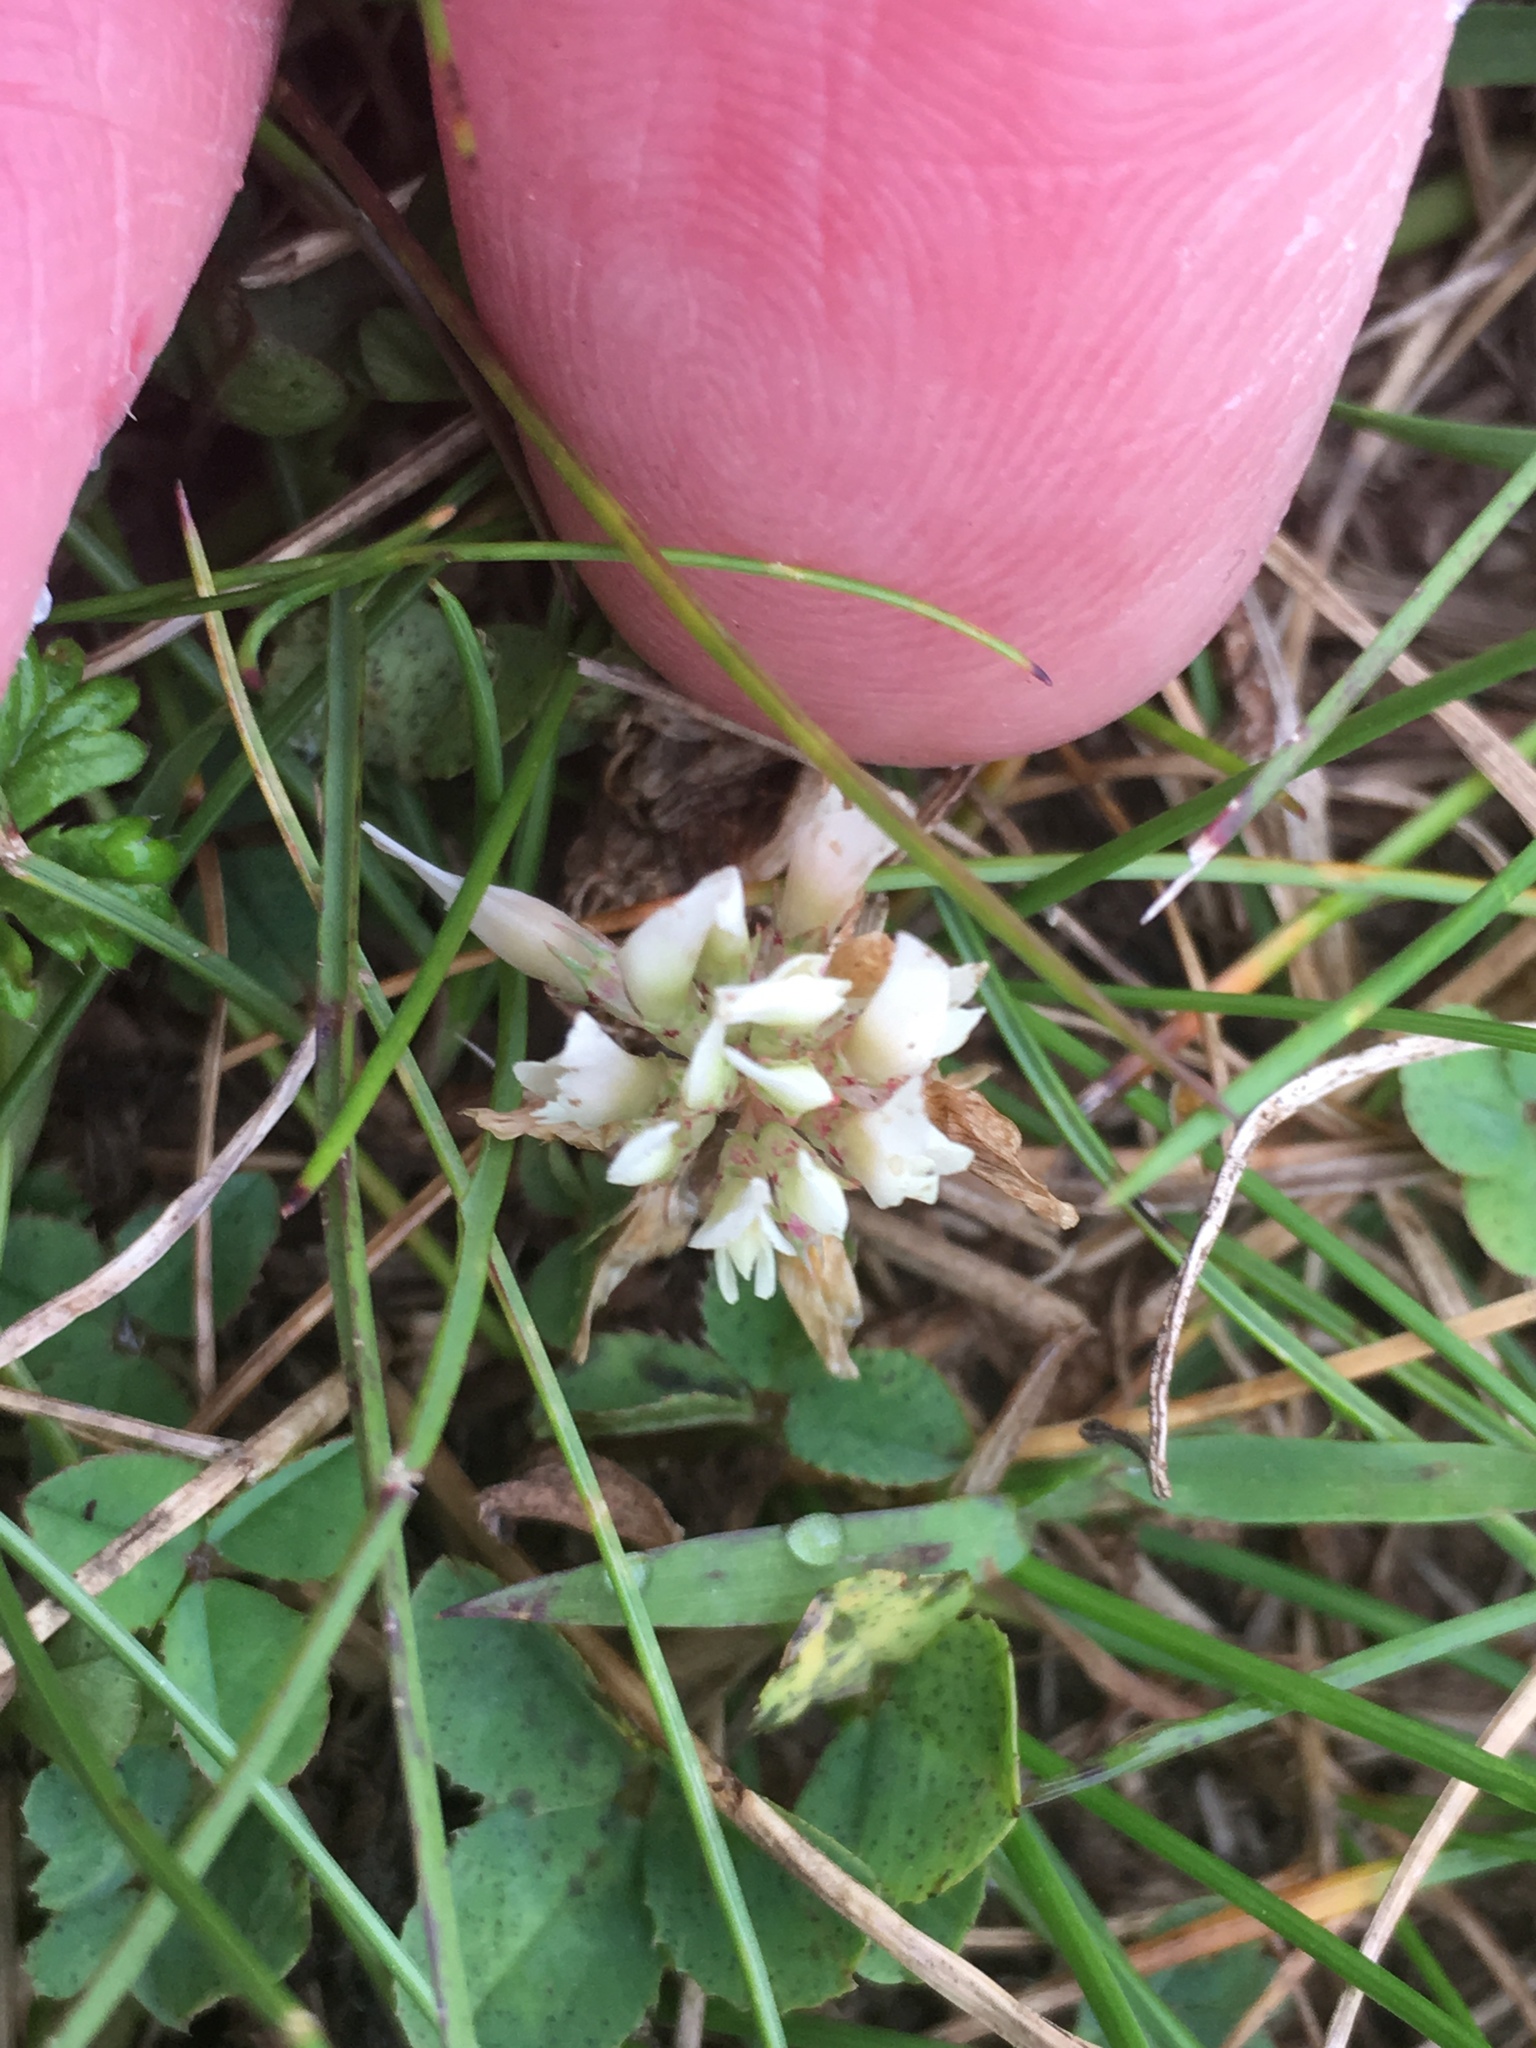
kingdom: Plantae
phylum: Tracheophyta
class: Magnoliopsida
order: Fabales
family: Fabaceae
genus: Trifolium
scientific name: Trifolium repens
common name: White clover
